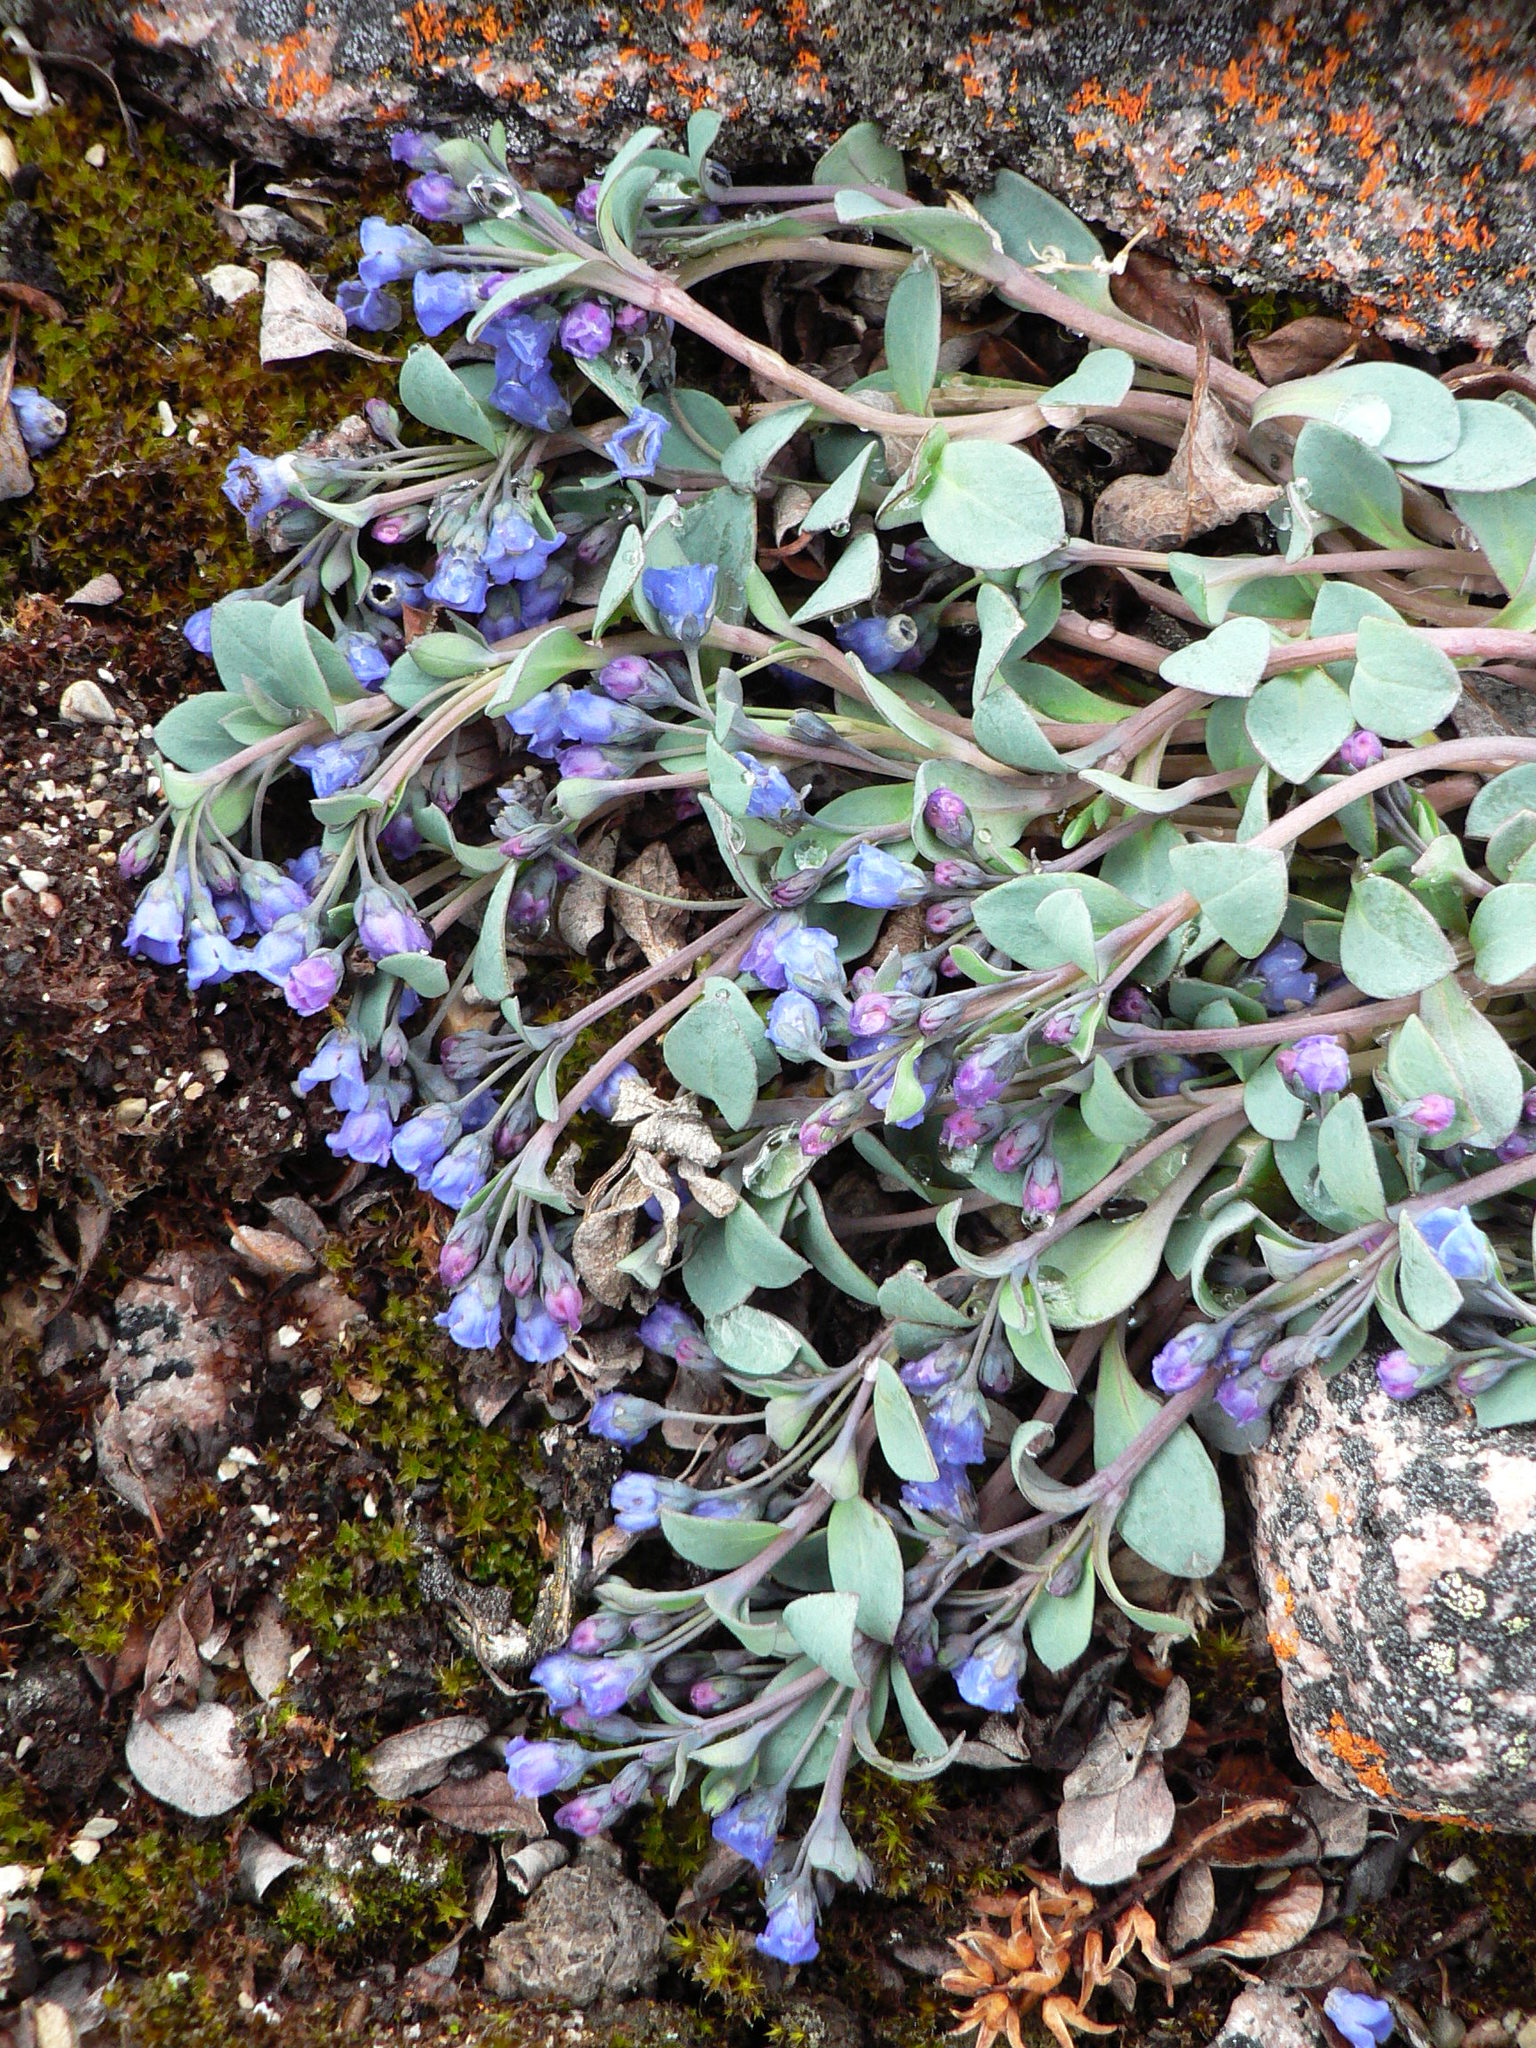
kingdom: Plantae
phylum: Tracheophyta
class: Magnoliopsida
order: Boraginales
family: Boraginaceae
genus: Mertensia
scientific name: Mertensia maritima
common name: Oysterplant
